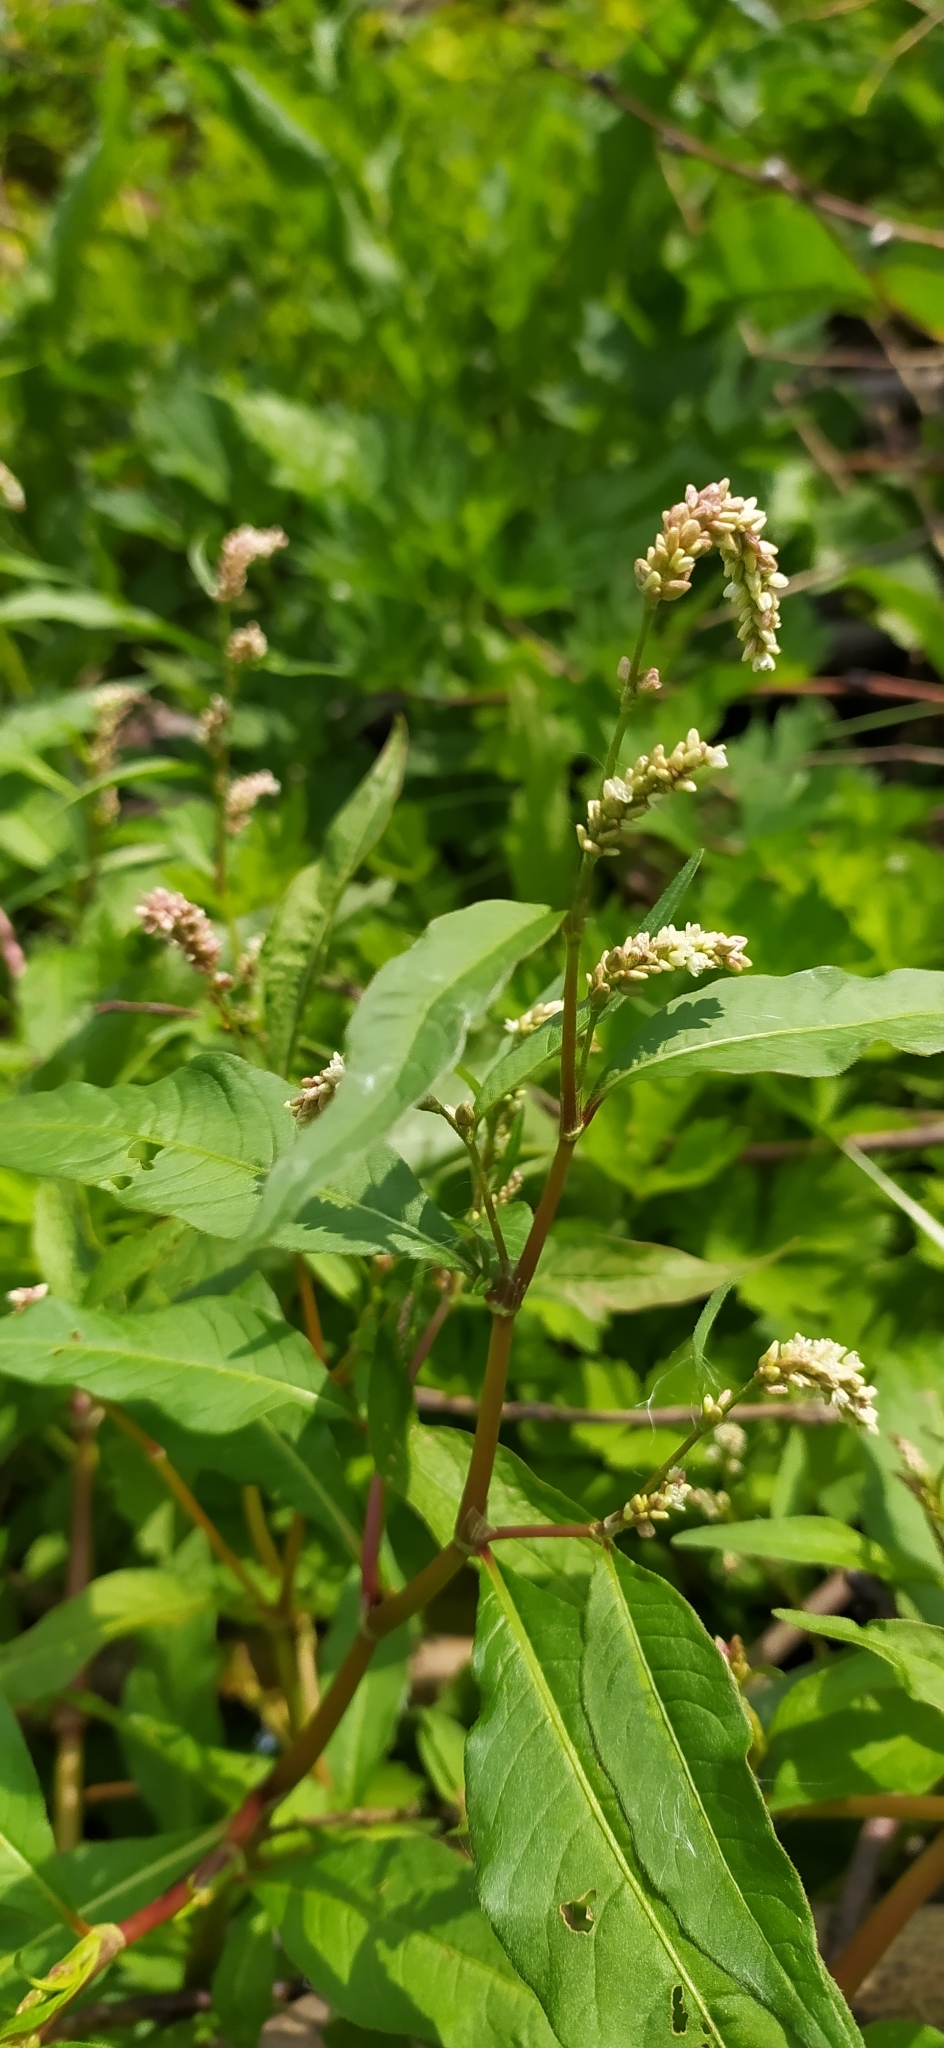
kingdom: Plantae
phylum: Tracheophyta
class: Magnoliopsida
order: Caryophyllales
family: Polygonaceae
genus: Persicaria
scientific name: Persicaria lapathifolia
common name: Curlytop knotweed
